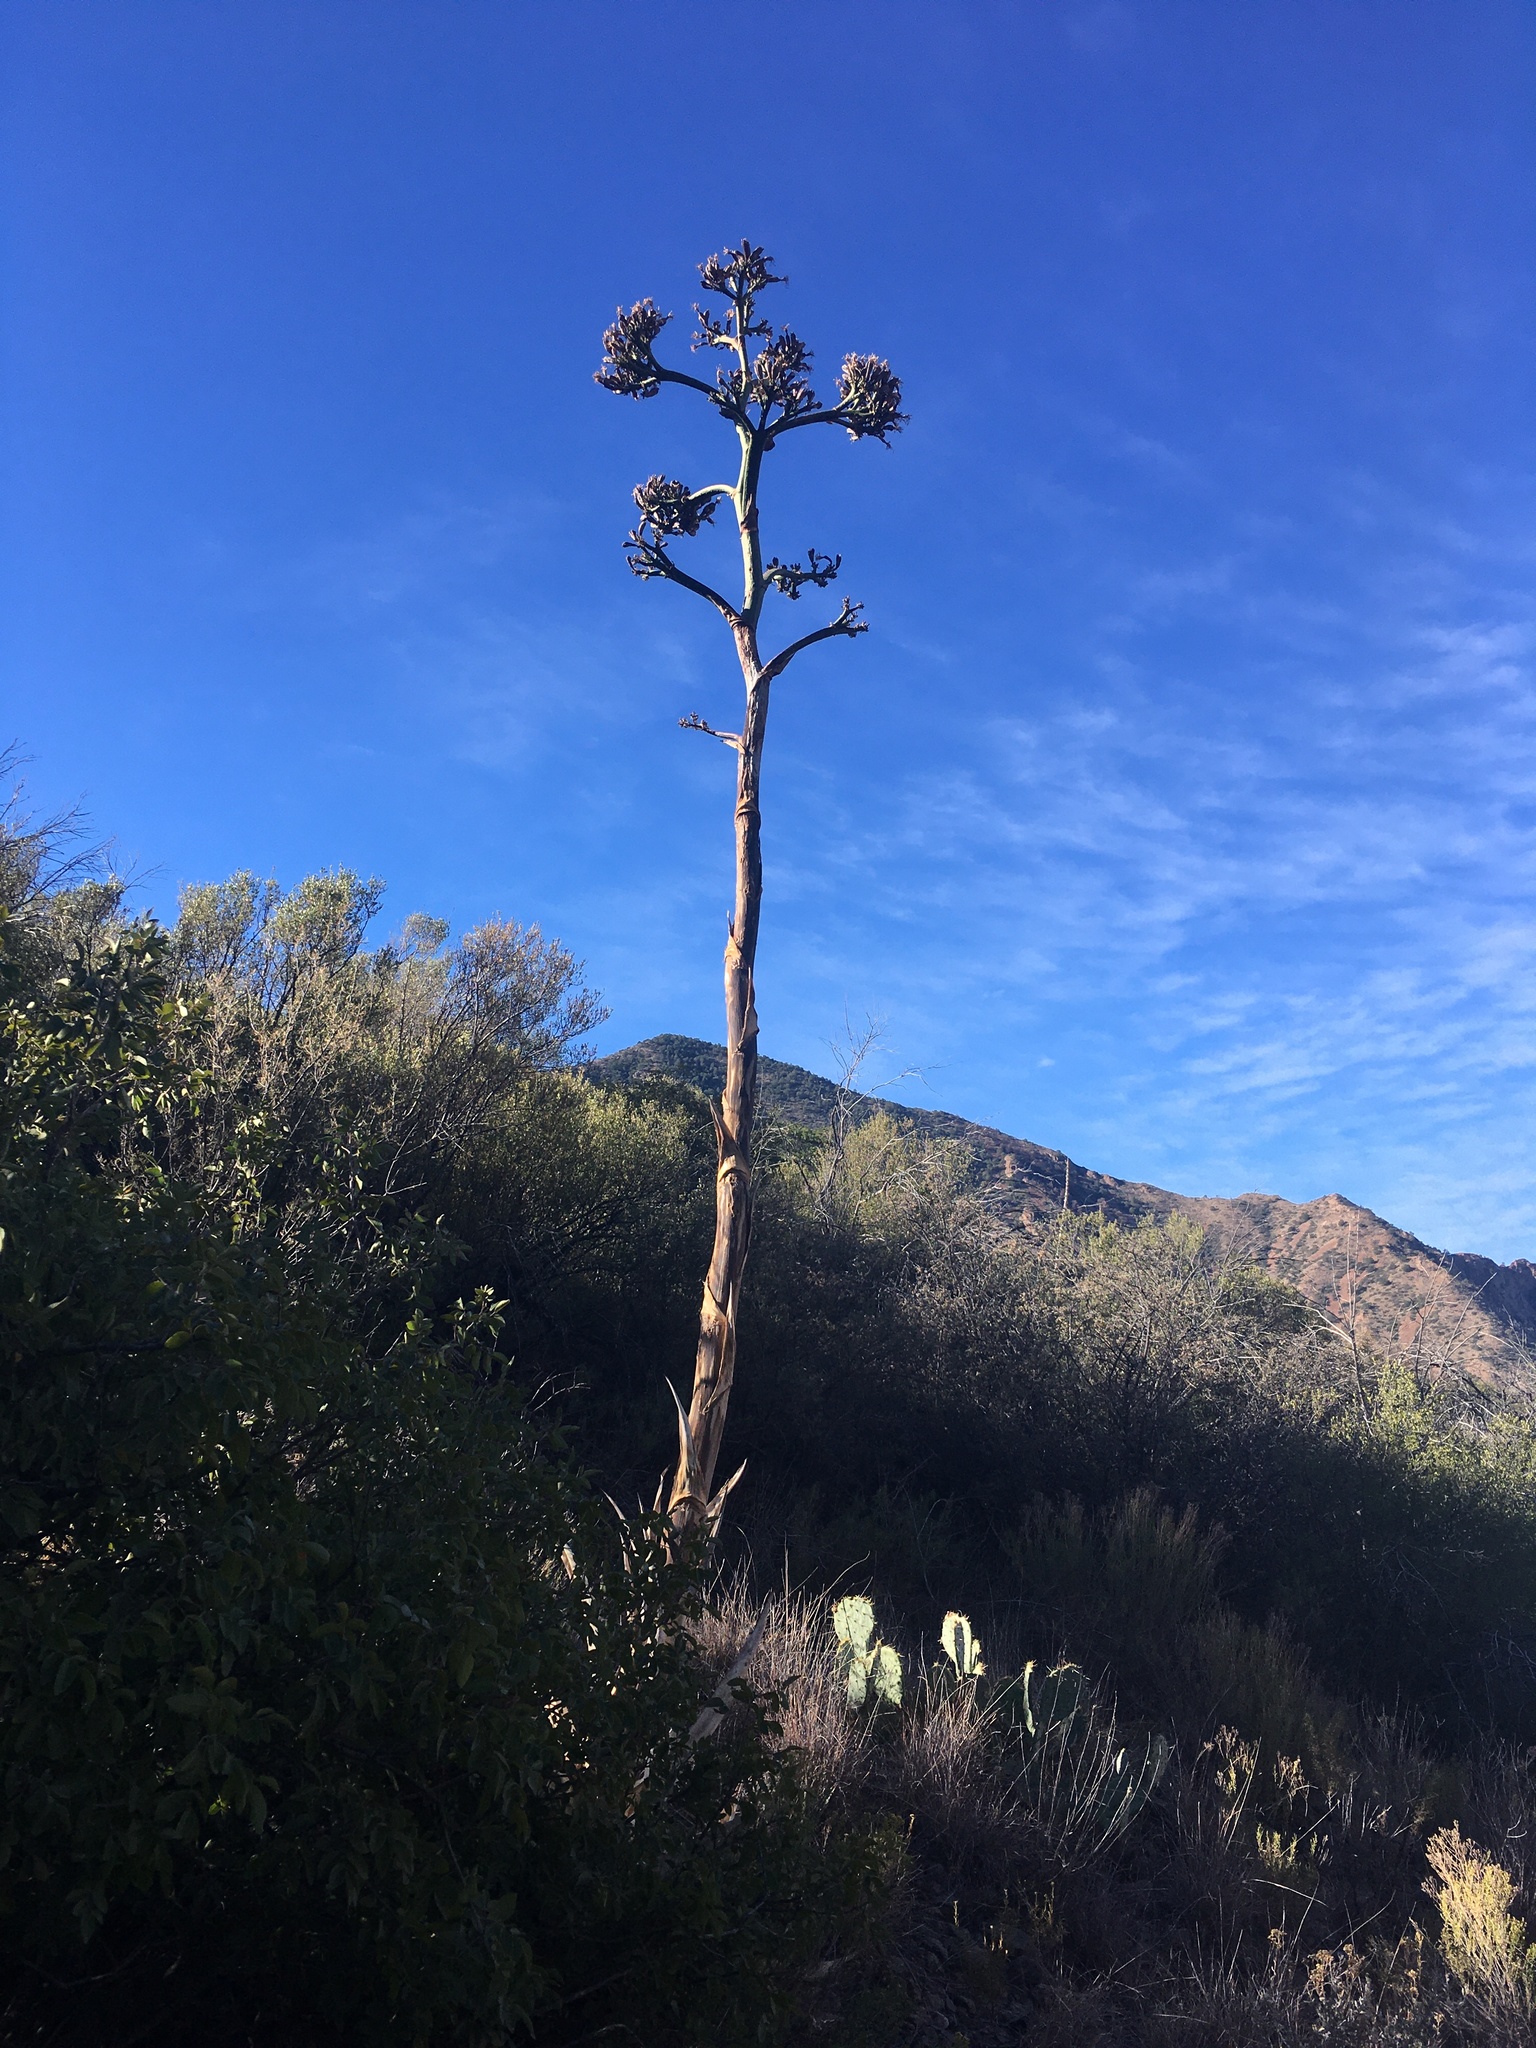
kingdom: Plantae
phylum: Tracheophyta
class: Liliopsida
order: Asparagales
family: Asparagaceae
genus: Agave
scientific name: Agave havardiana
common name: Havard agave
